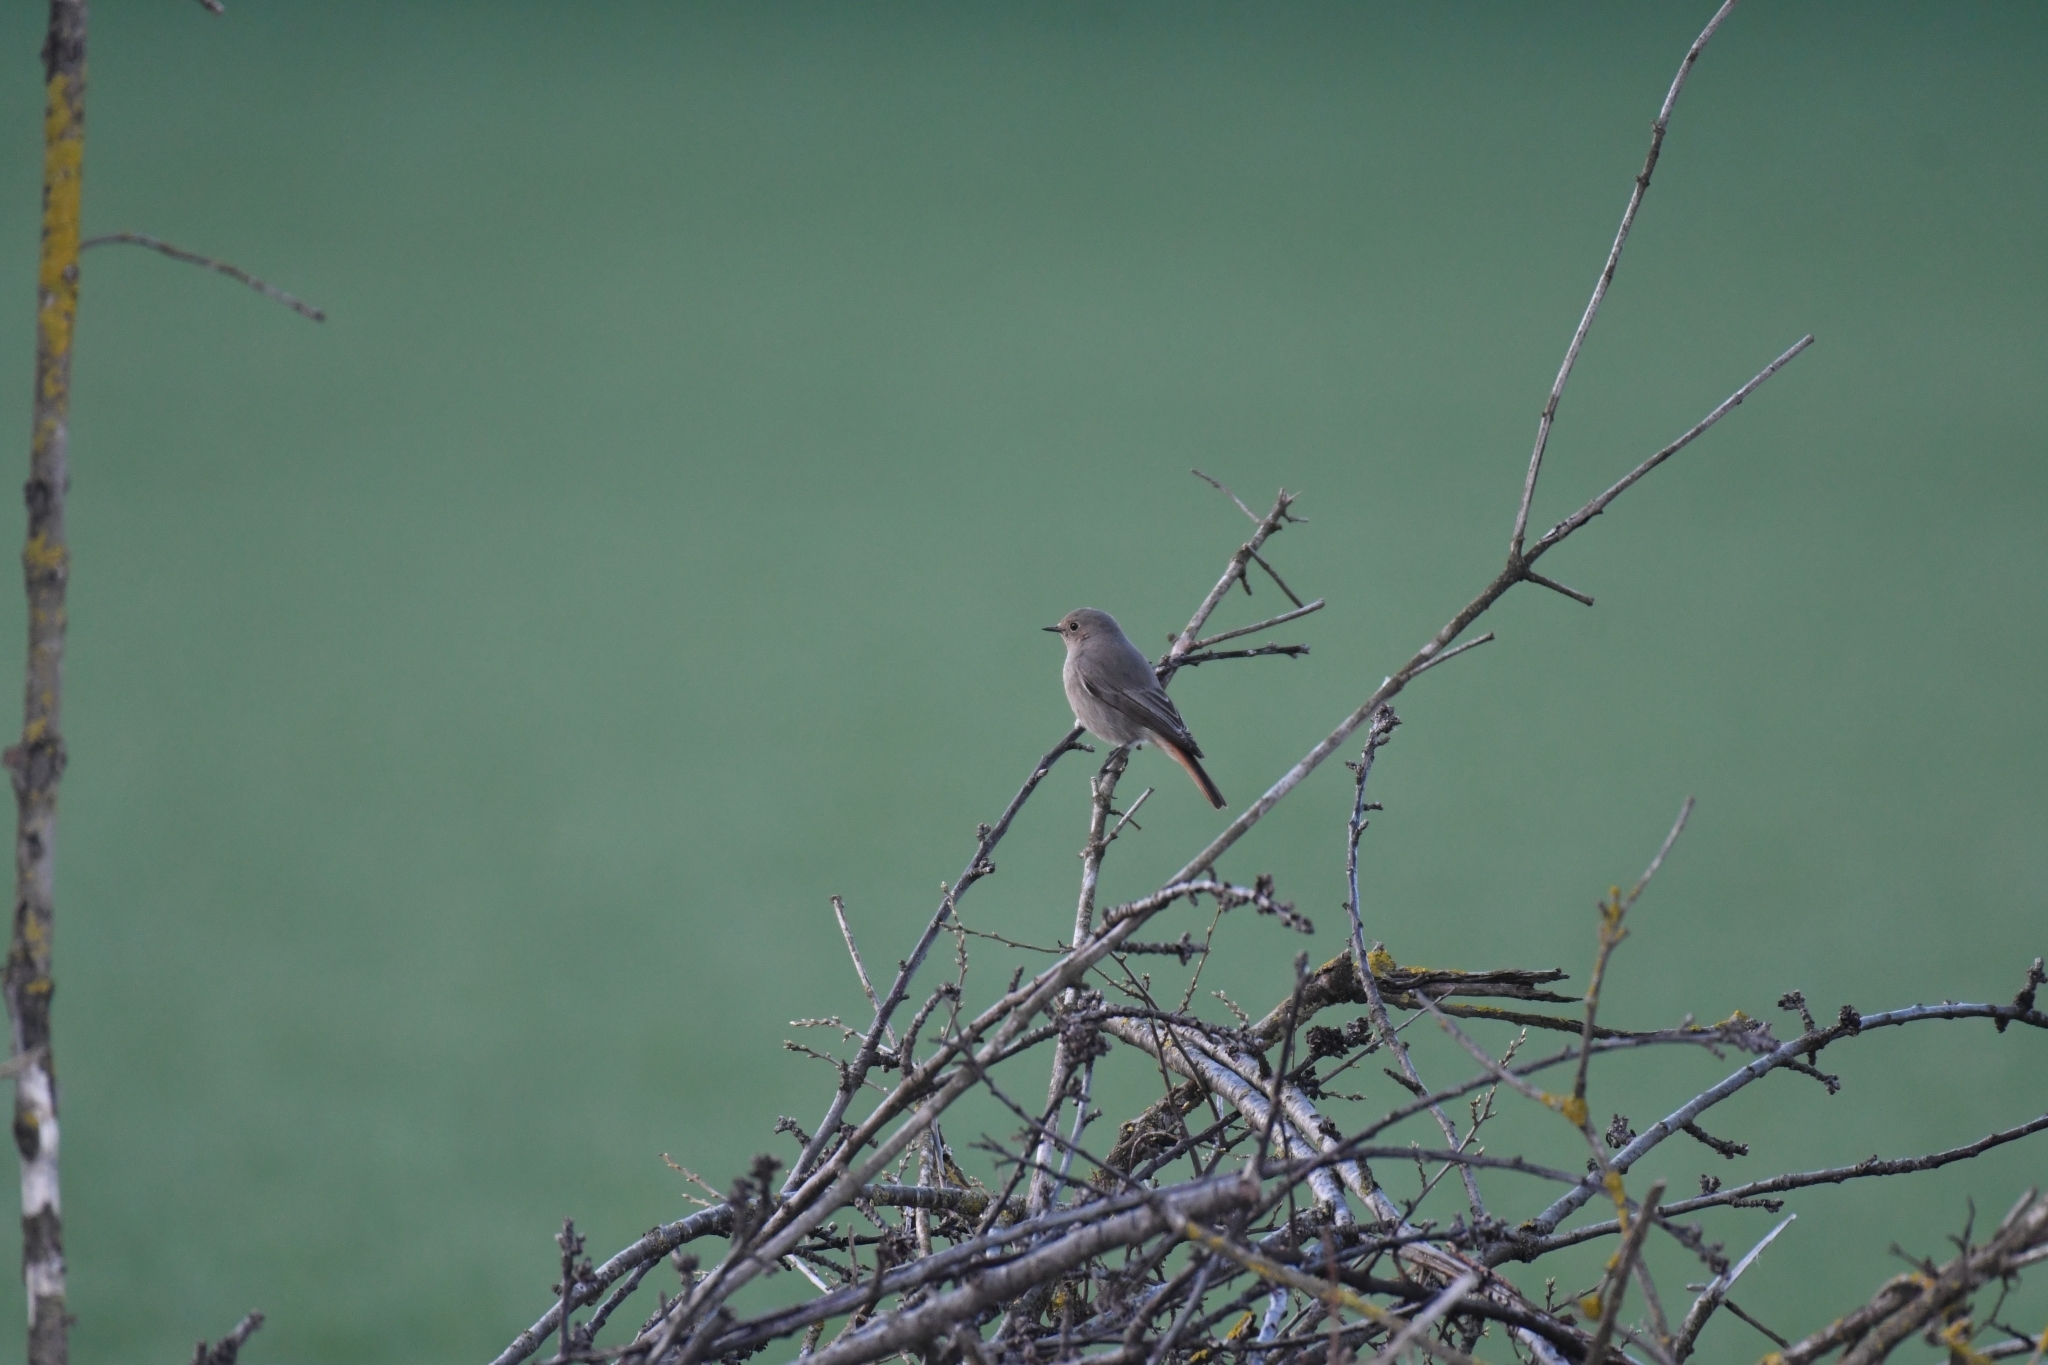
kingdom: Animalia
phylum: Chordata
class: Aves
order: Passeriformes
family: Muscicapidae
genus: Phoenicurus
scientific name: Phoenicurus ochruros
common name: Black redstart
